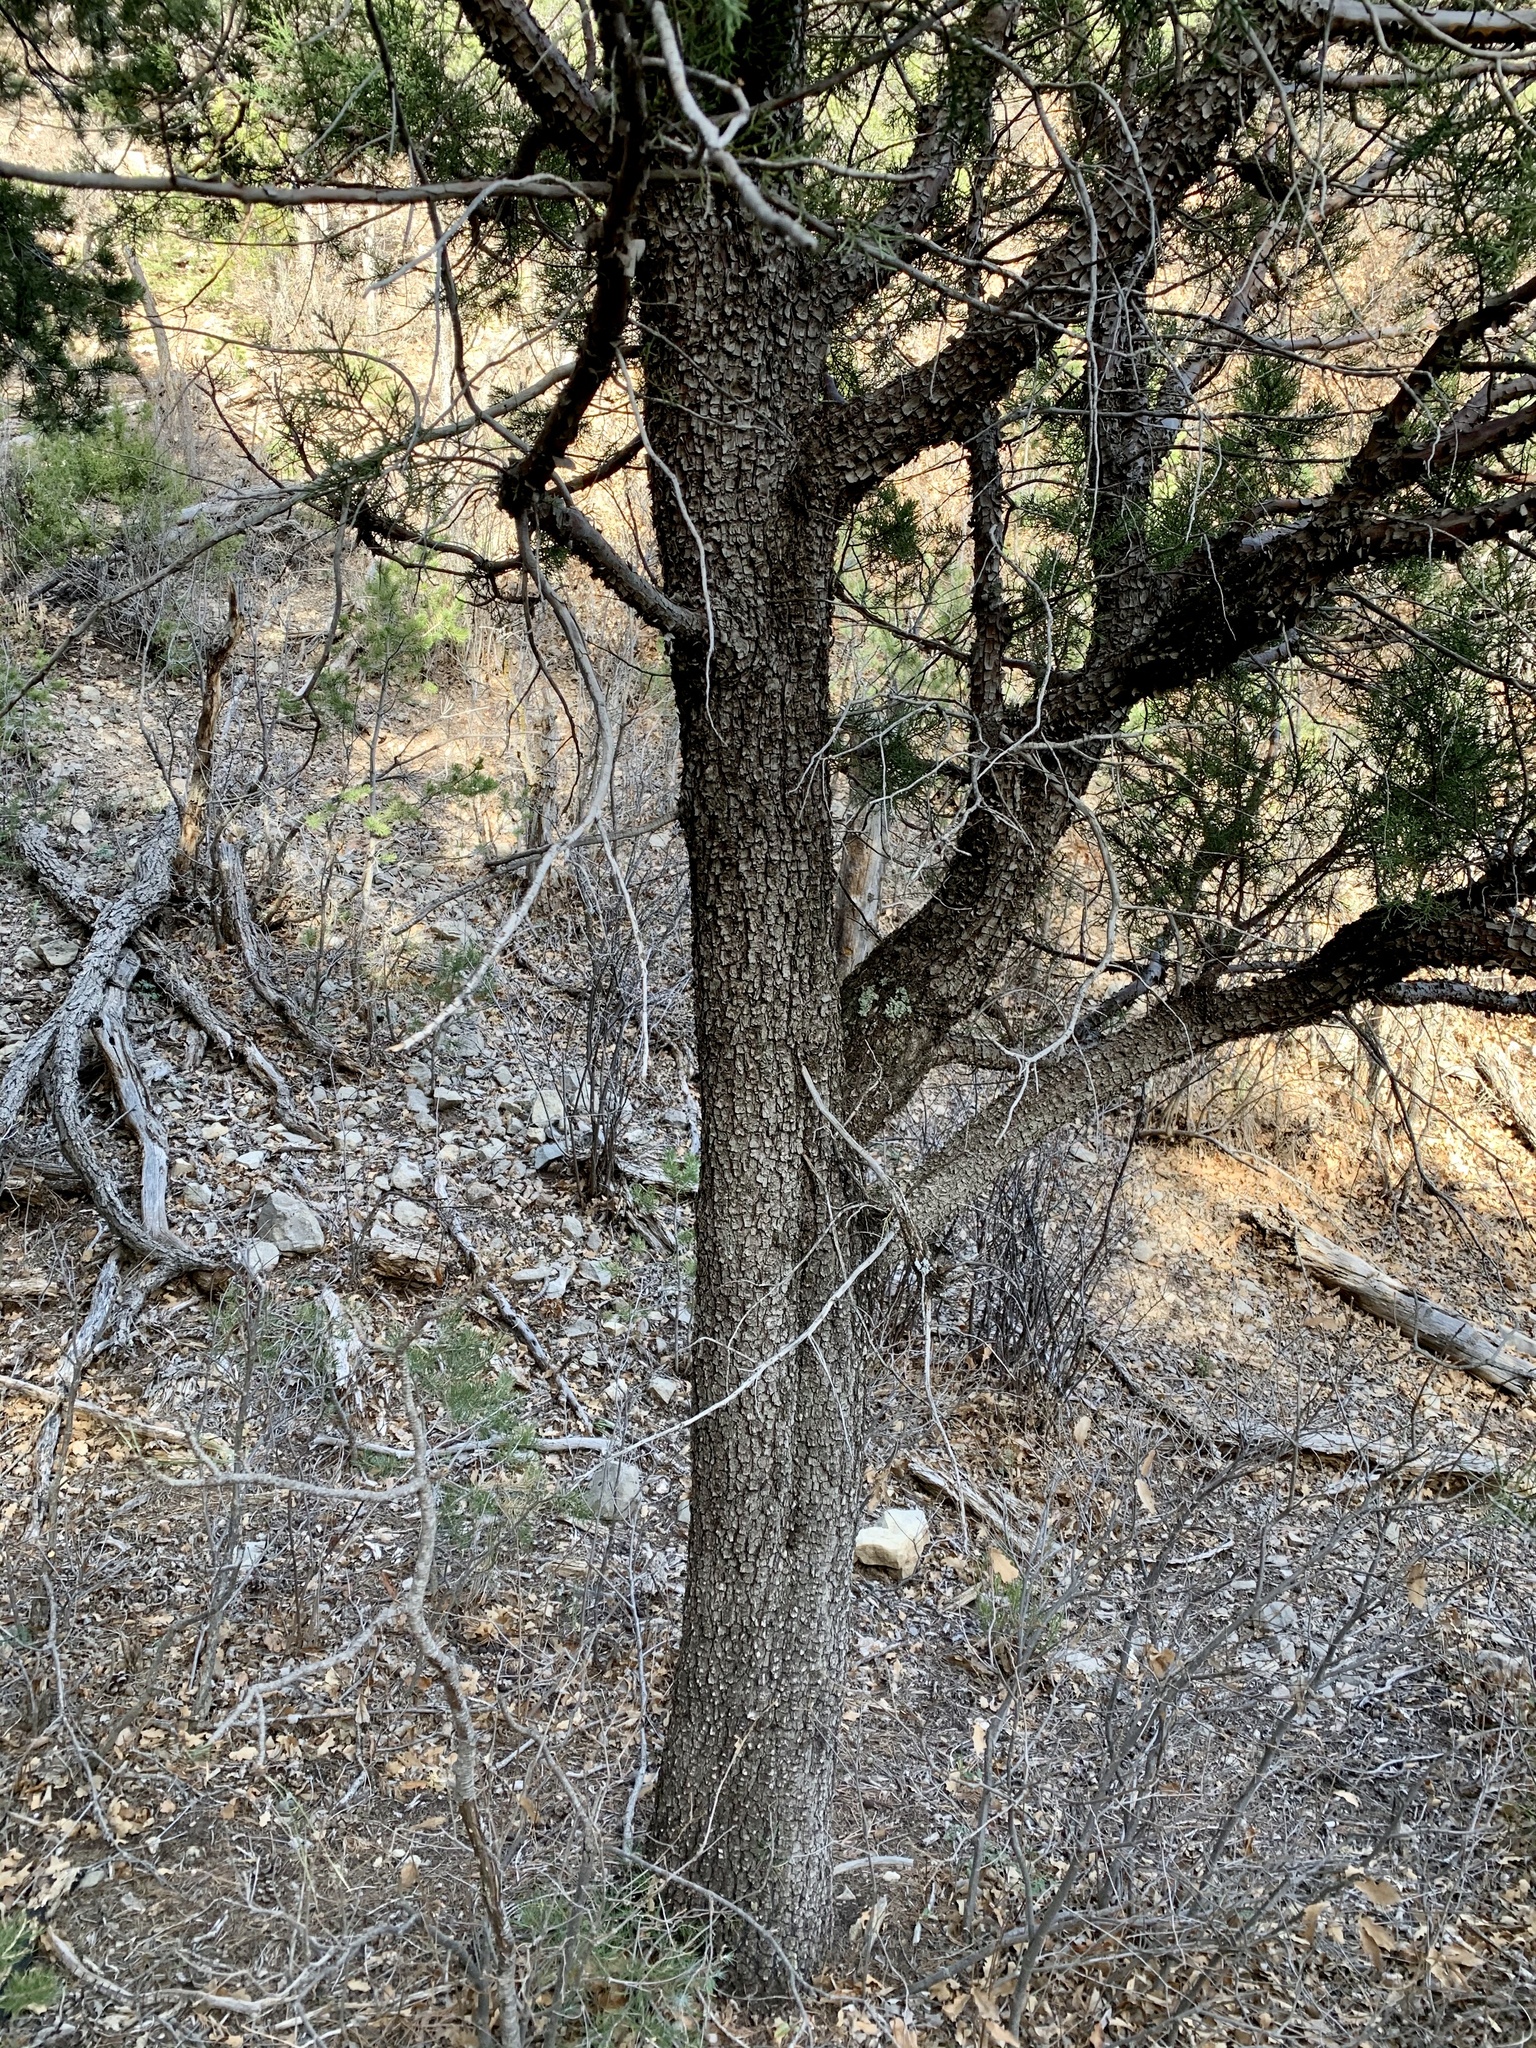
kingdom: Plantae
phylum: Tracheophyta
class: Pinopsida
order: Pinales
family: Cupressaceae
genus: Juniperus
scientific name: Juniperus deppeana
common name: Alligator juniper
